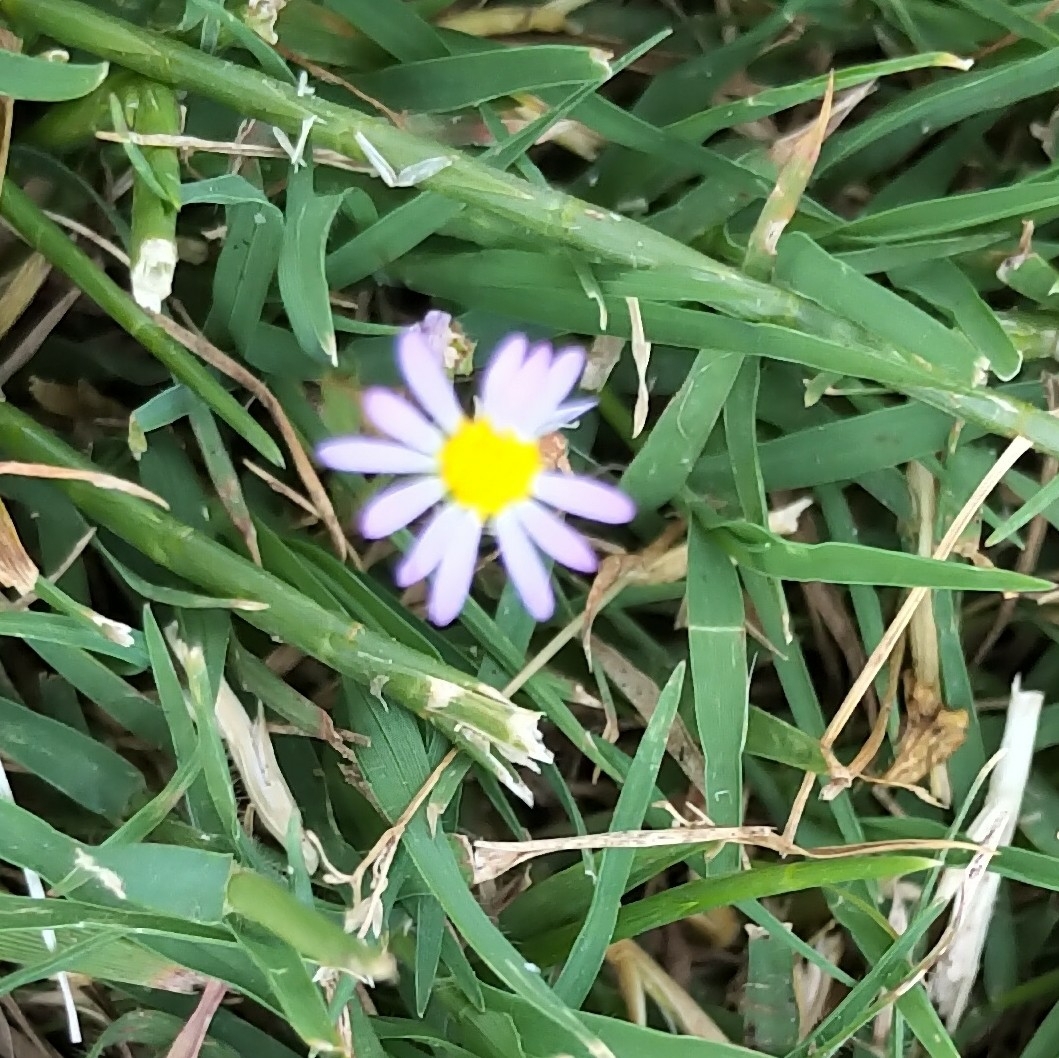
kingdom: Plantae
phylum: Tracheophyta
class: Magnoliopsida
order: Asterales
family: Asteraceae
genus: Bellis
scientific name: Bellis annua
